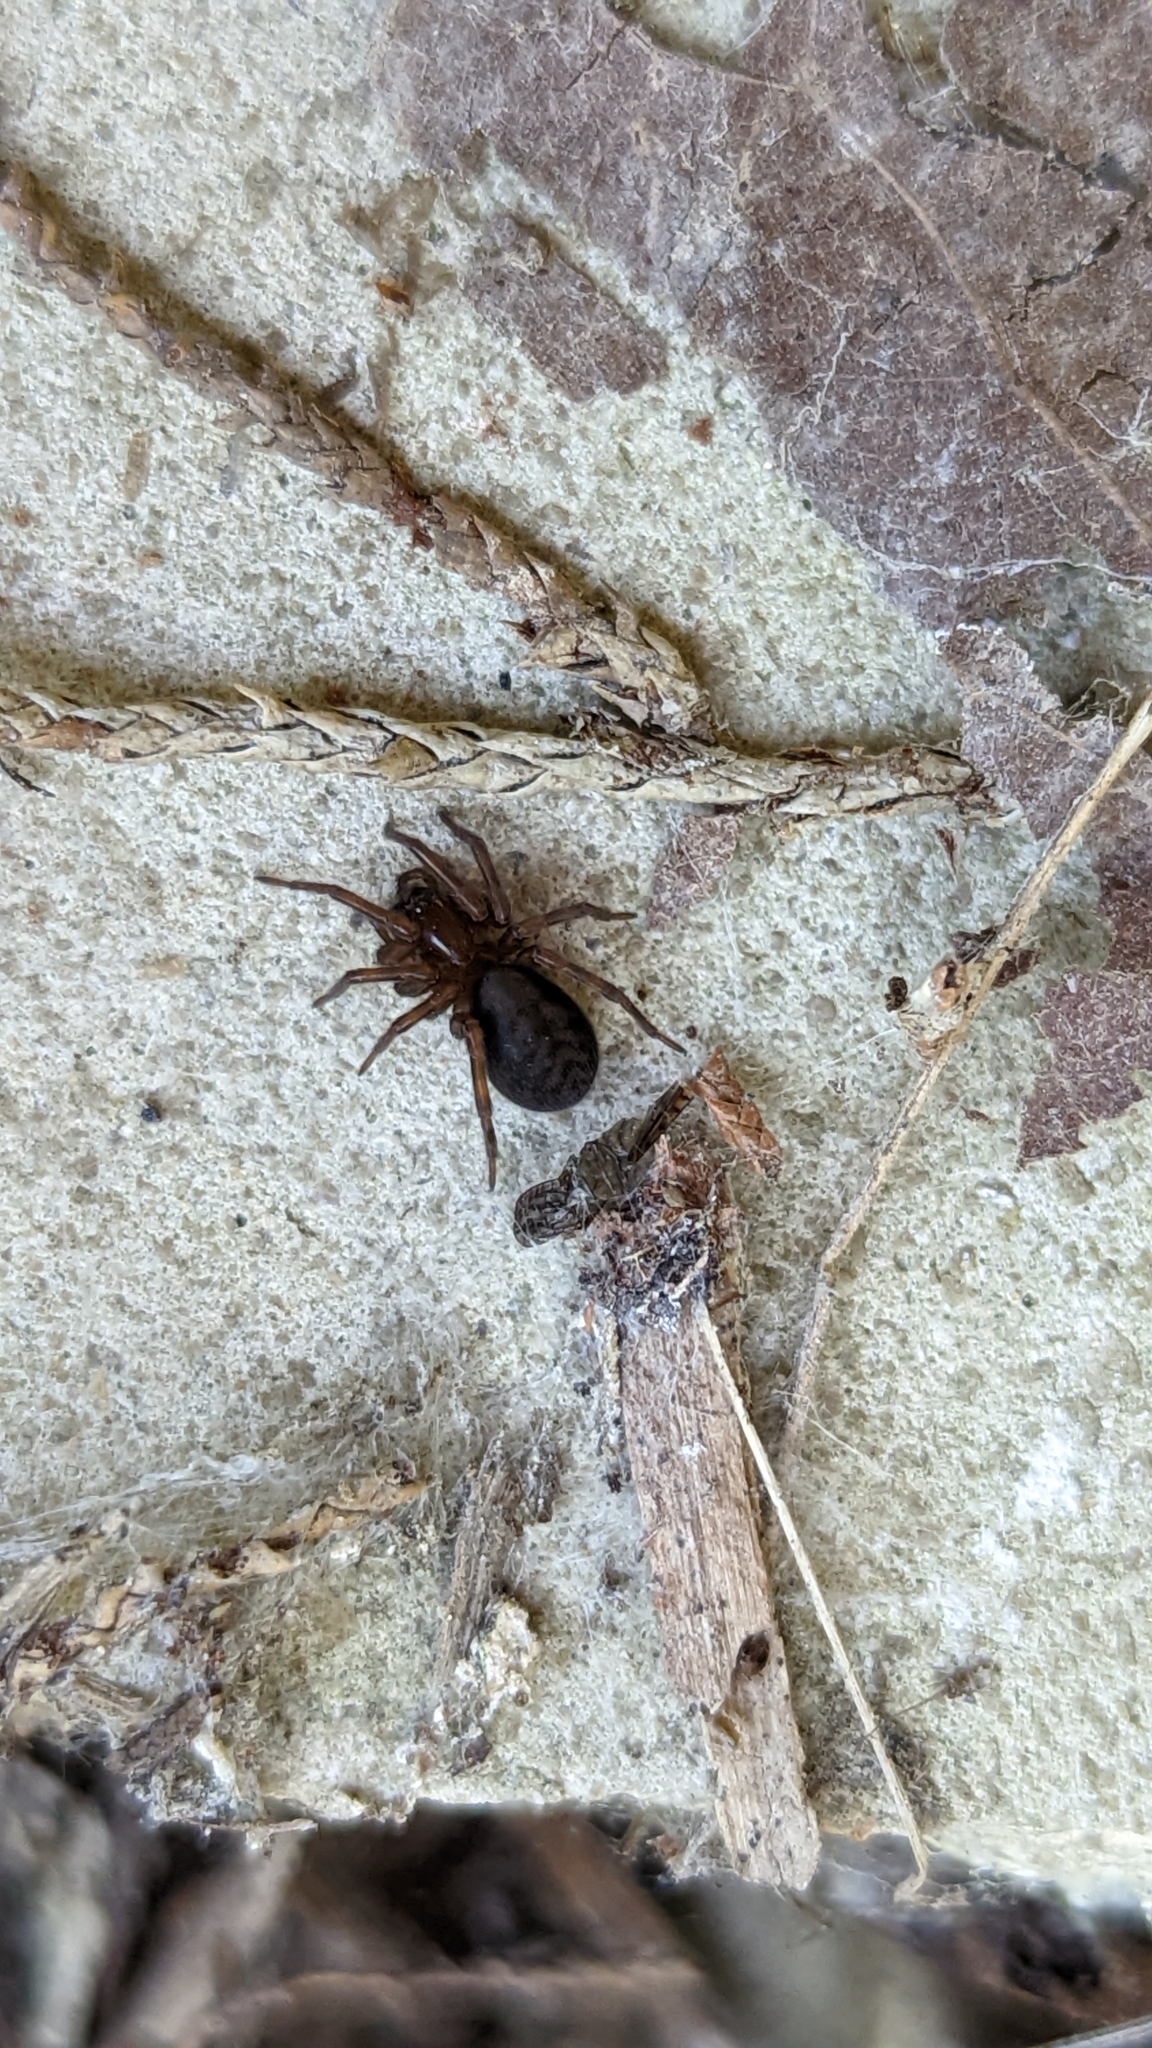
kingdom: Animalia
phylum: Arthropoda
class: Arachnida
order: Araneae
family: Amaurobiidae
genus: Amaurobius
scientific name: Amaurobius ferox
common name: Black laceweaver
